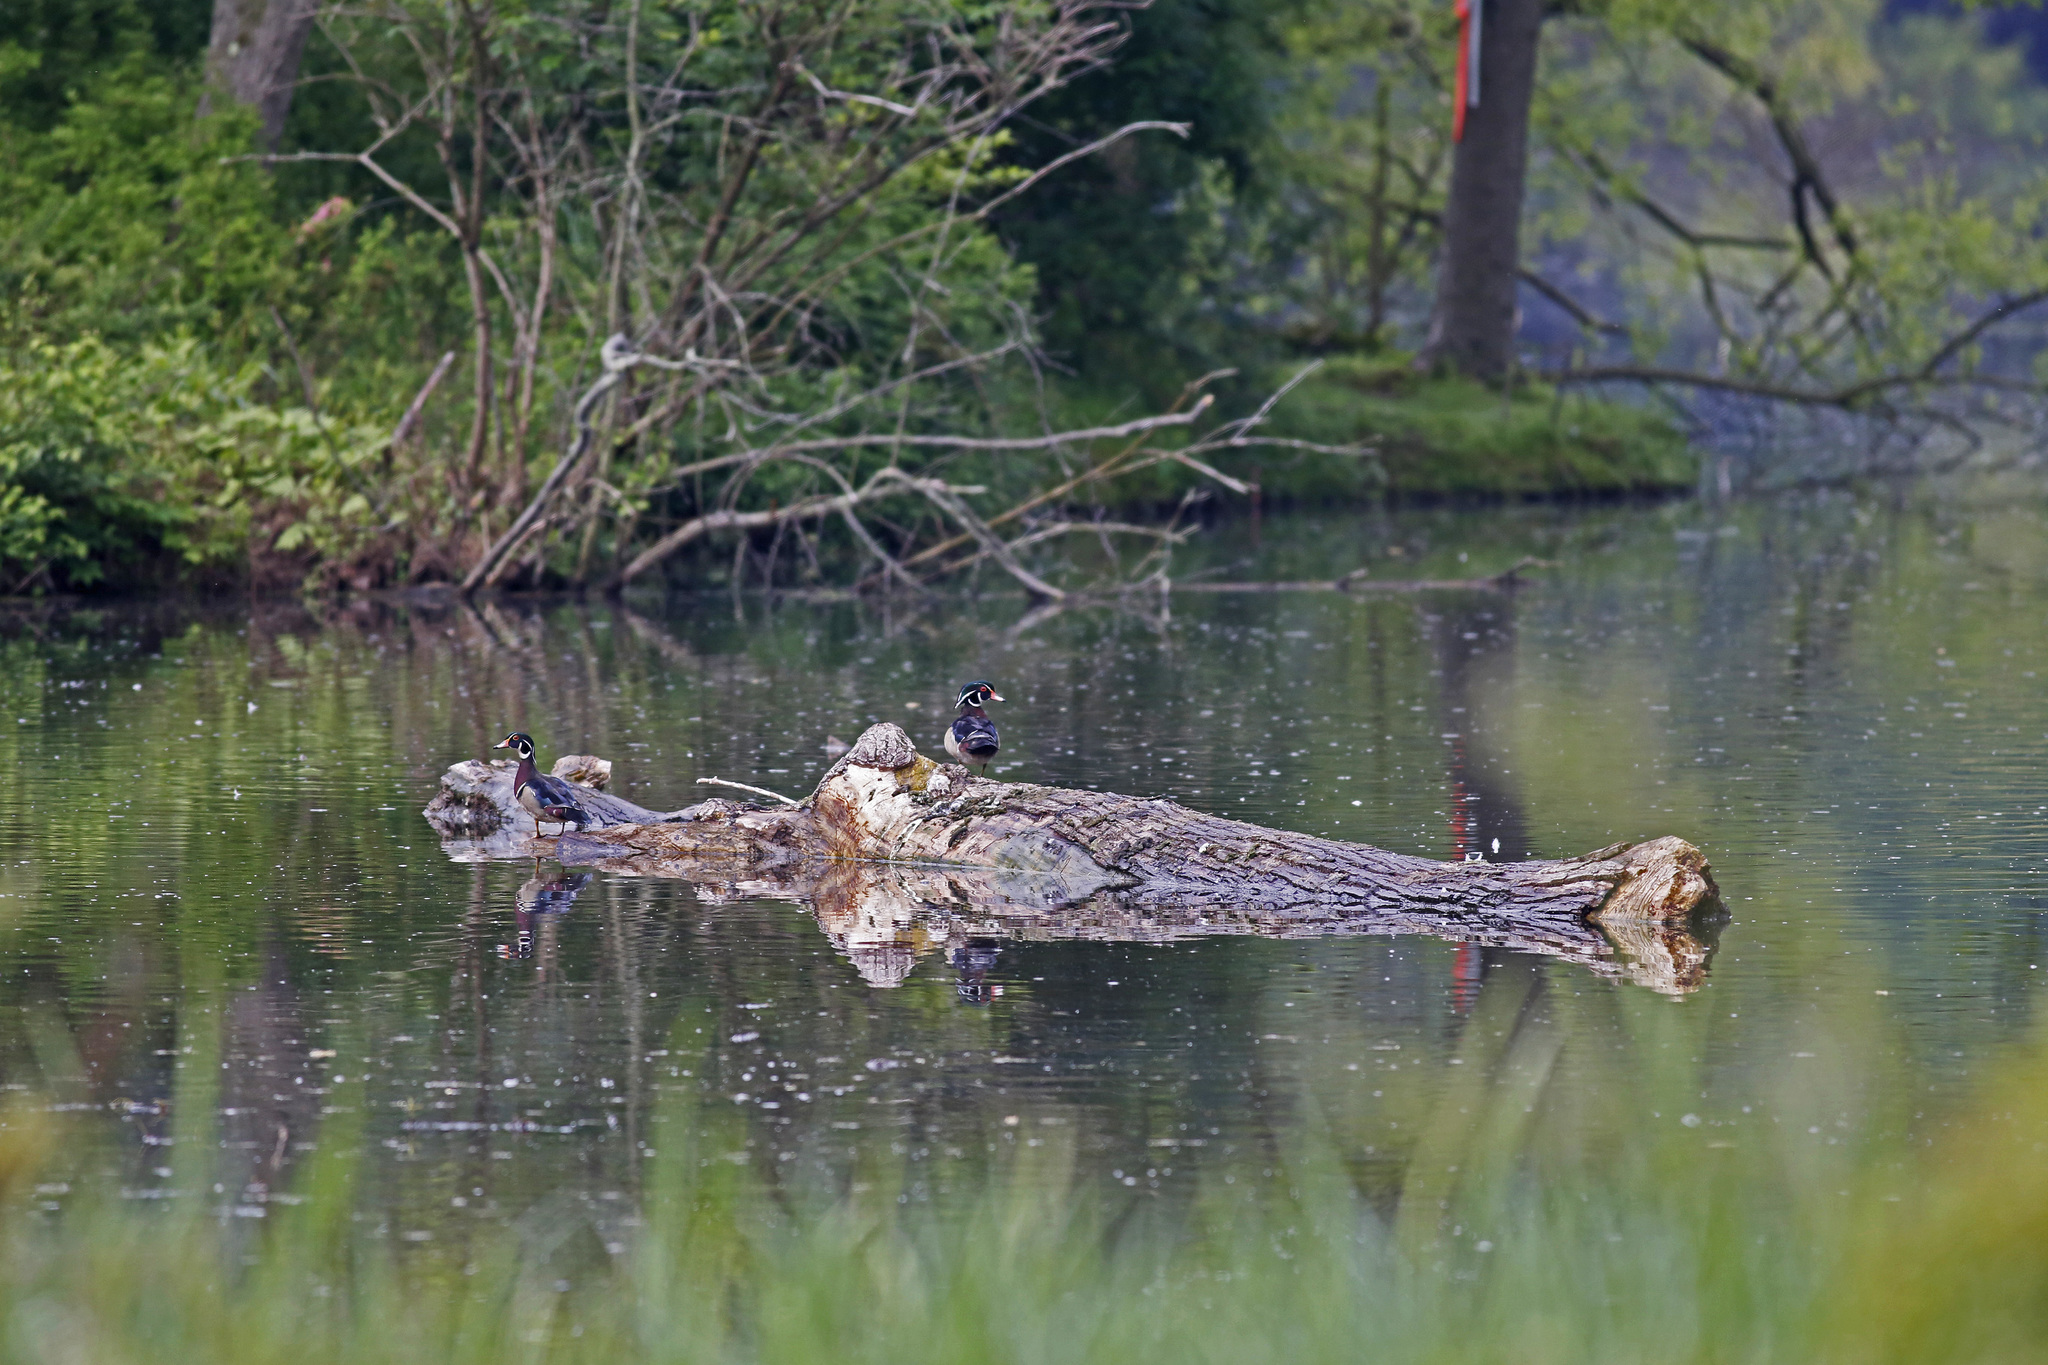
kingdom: Animalia
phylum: Chordata
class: Aves
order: Anseriformes
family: Anatidae
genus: Aix
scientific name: Aix sponsa
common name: Wood duck
